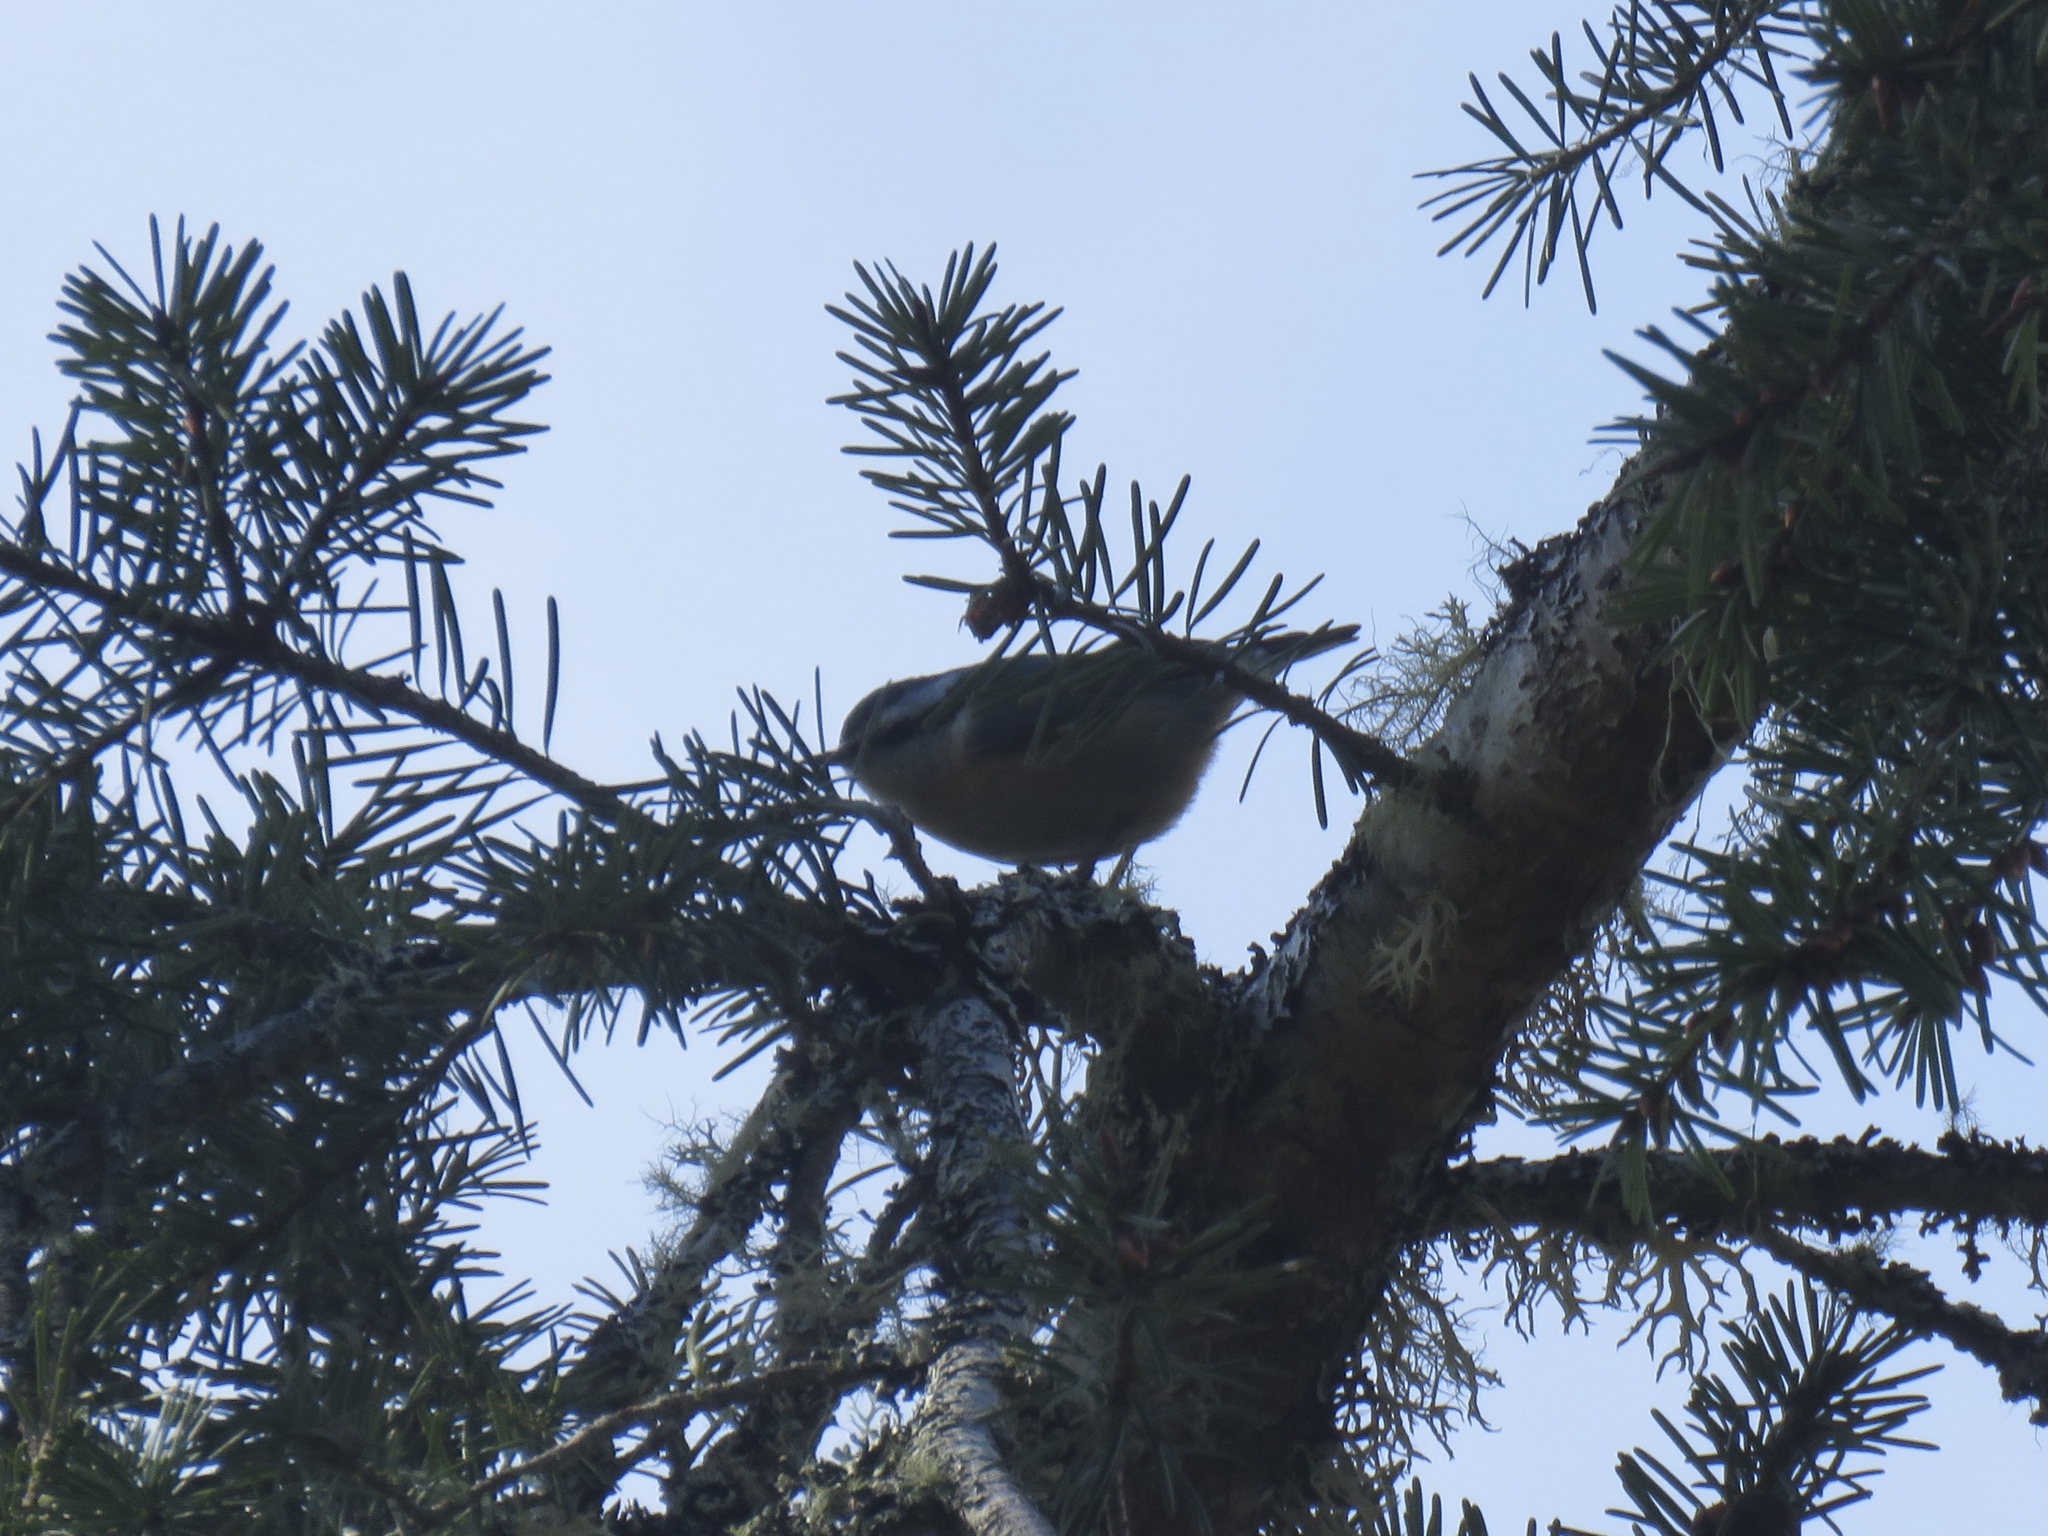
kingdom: Animalia
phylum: Chordata
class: Aves
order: Passeriformes
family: Sittidae
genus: Sitta
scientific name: Sitta canadensis
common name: Red-breasted nuthatch
